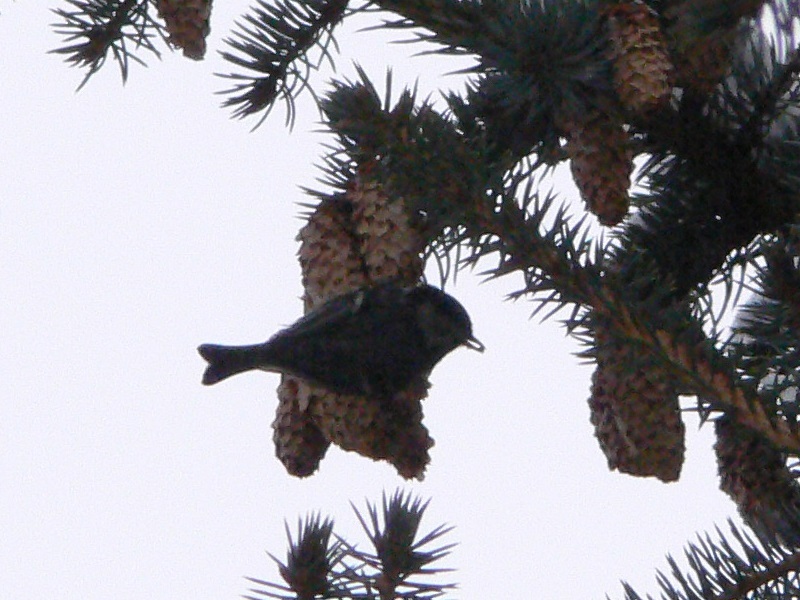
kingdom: Animalia
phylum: Chordata
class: Aves
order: Passeriformes
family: Paridae
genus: Periparus
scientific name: Periparus ater
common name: Coal tit
